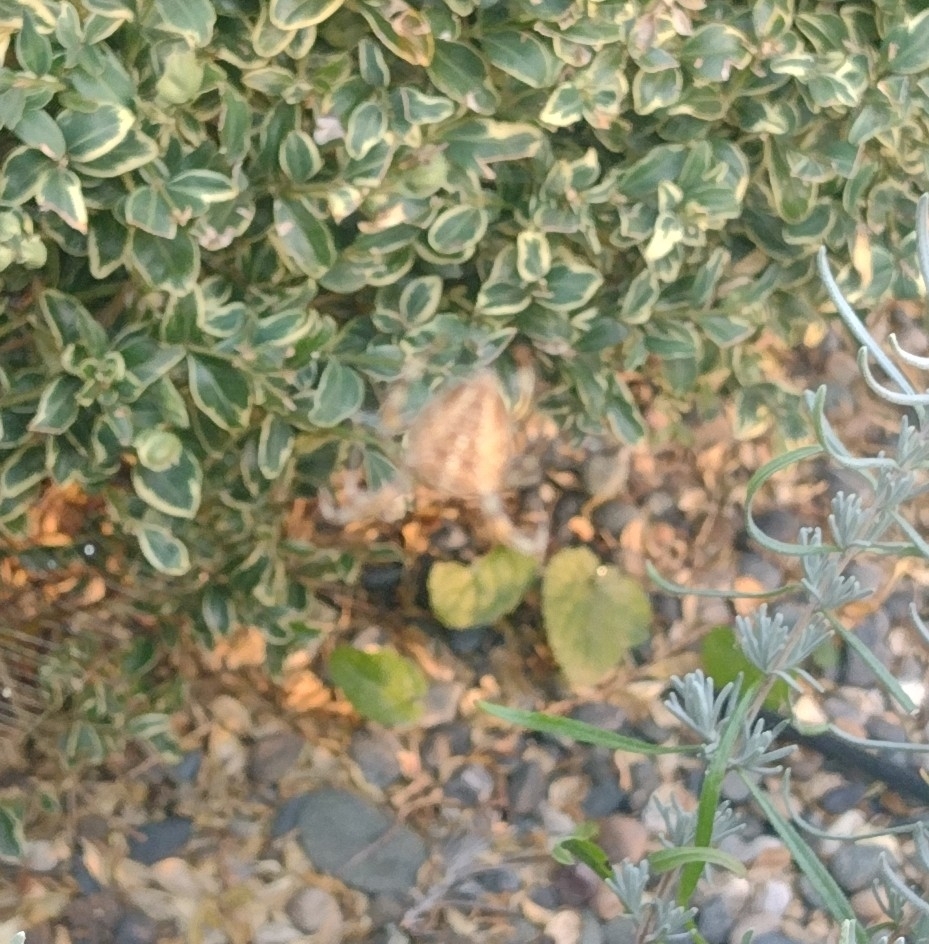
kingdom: Animalia
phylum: Arthropoda
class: Arachnida
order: Araneae
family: Araneidae
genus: Araneus
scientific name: Araneus diadematus
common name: Cross orbweaver
